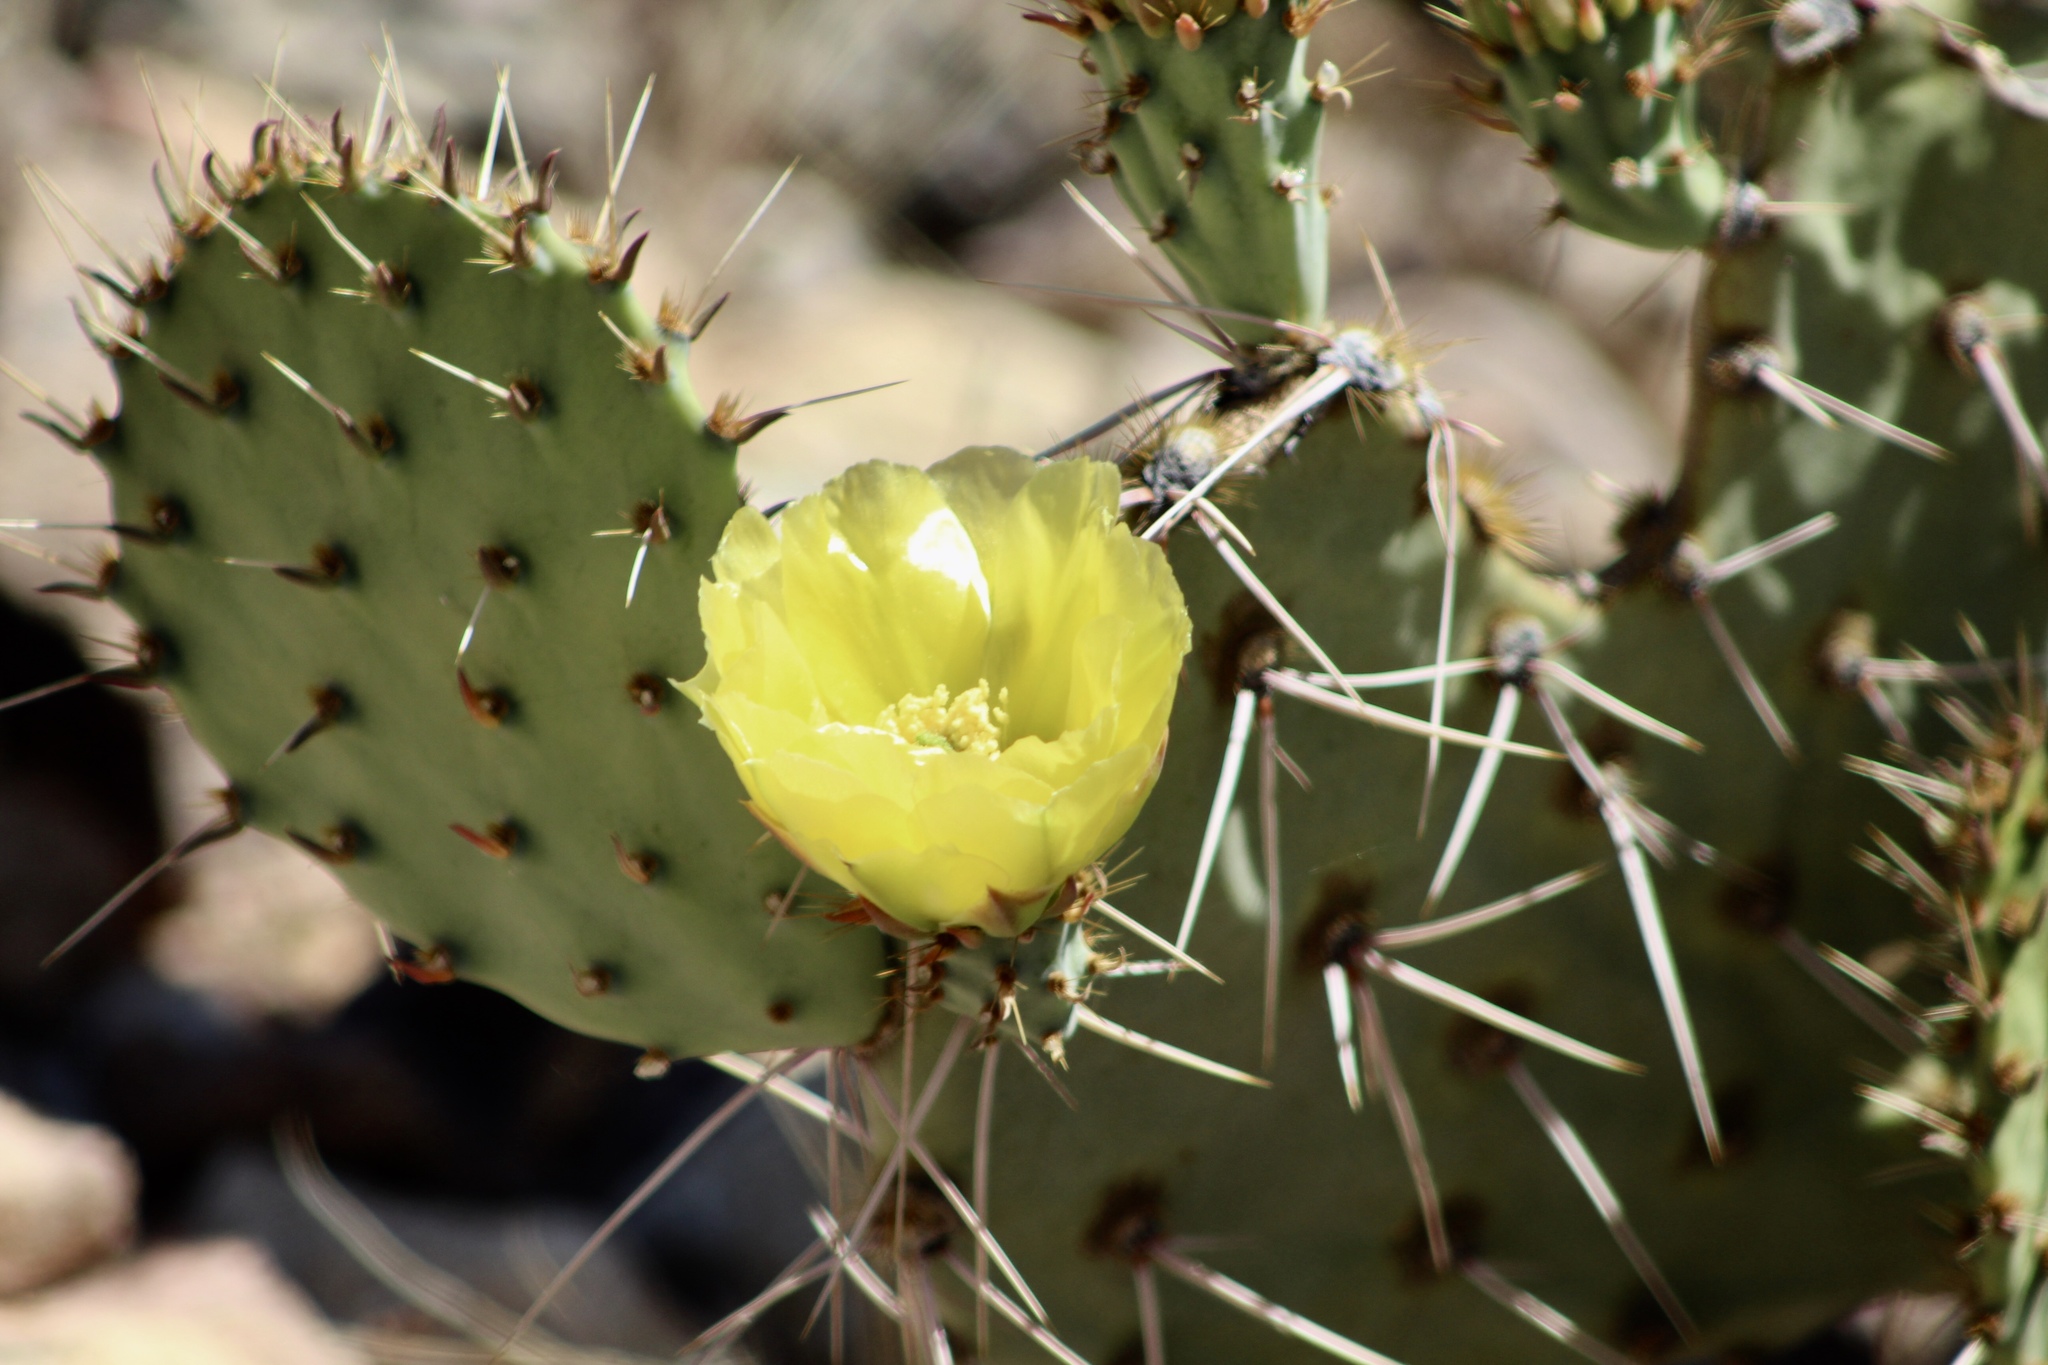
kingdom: Plantae
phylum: Tracheophyta
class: Magnoliopsida
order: Caryophyllales
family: Cactaceae
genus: Opuntia
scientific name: Opuntia engelmannii
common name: Cactus-apple
